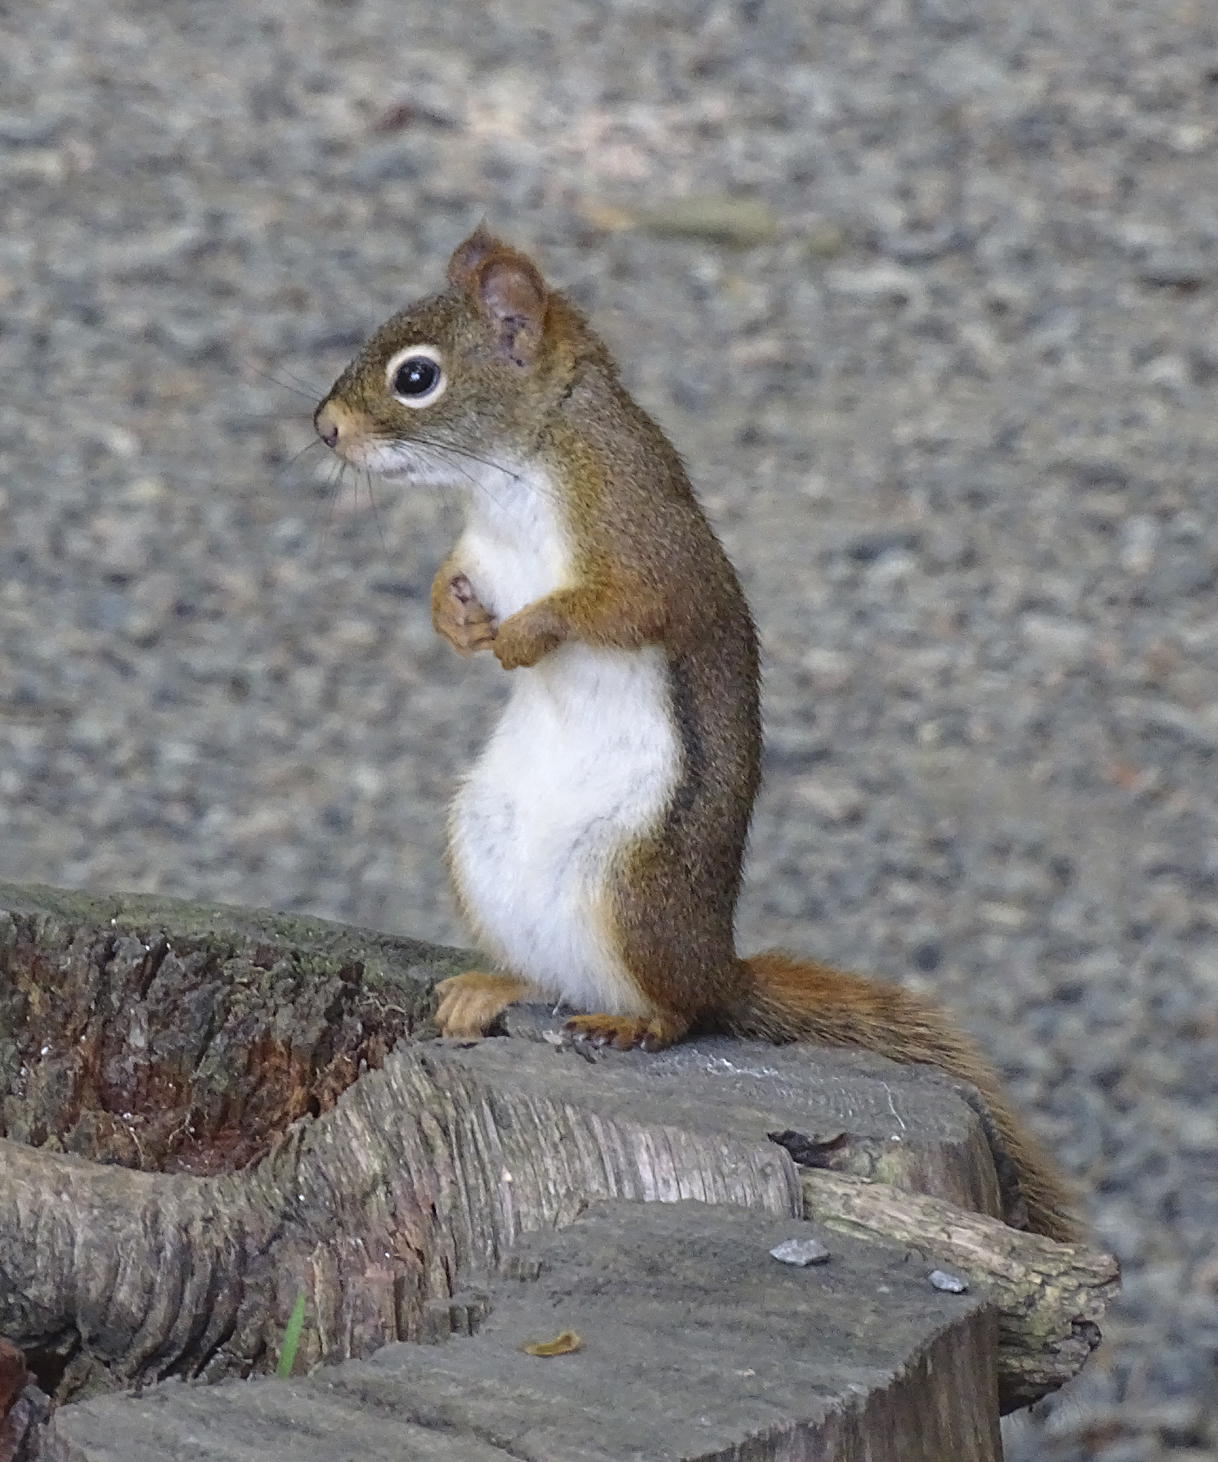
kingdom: Animalia
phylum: Chordata
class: Mammalia
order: Rodentia
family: Sciuridae
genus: Tamiasciurus
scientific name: Tamiasciurus hudsonicus
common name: Red squirrel
